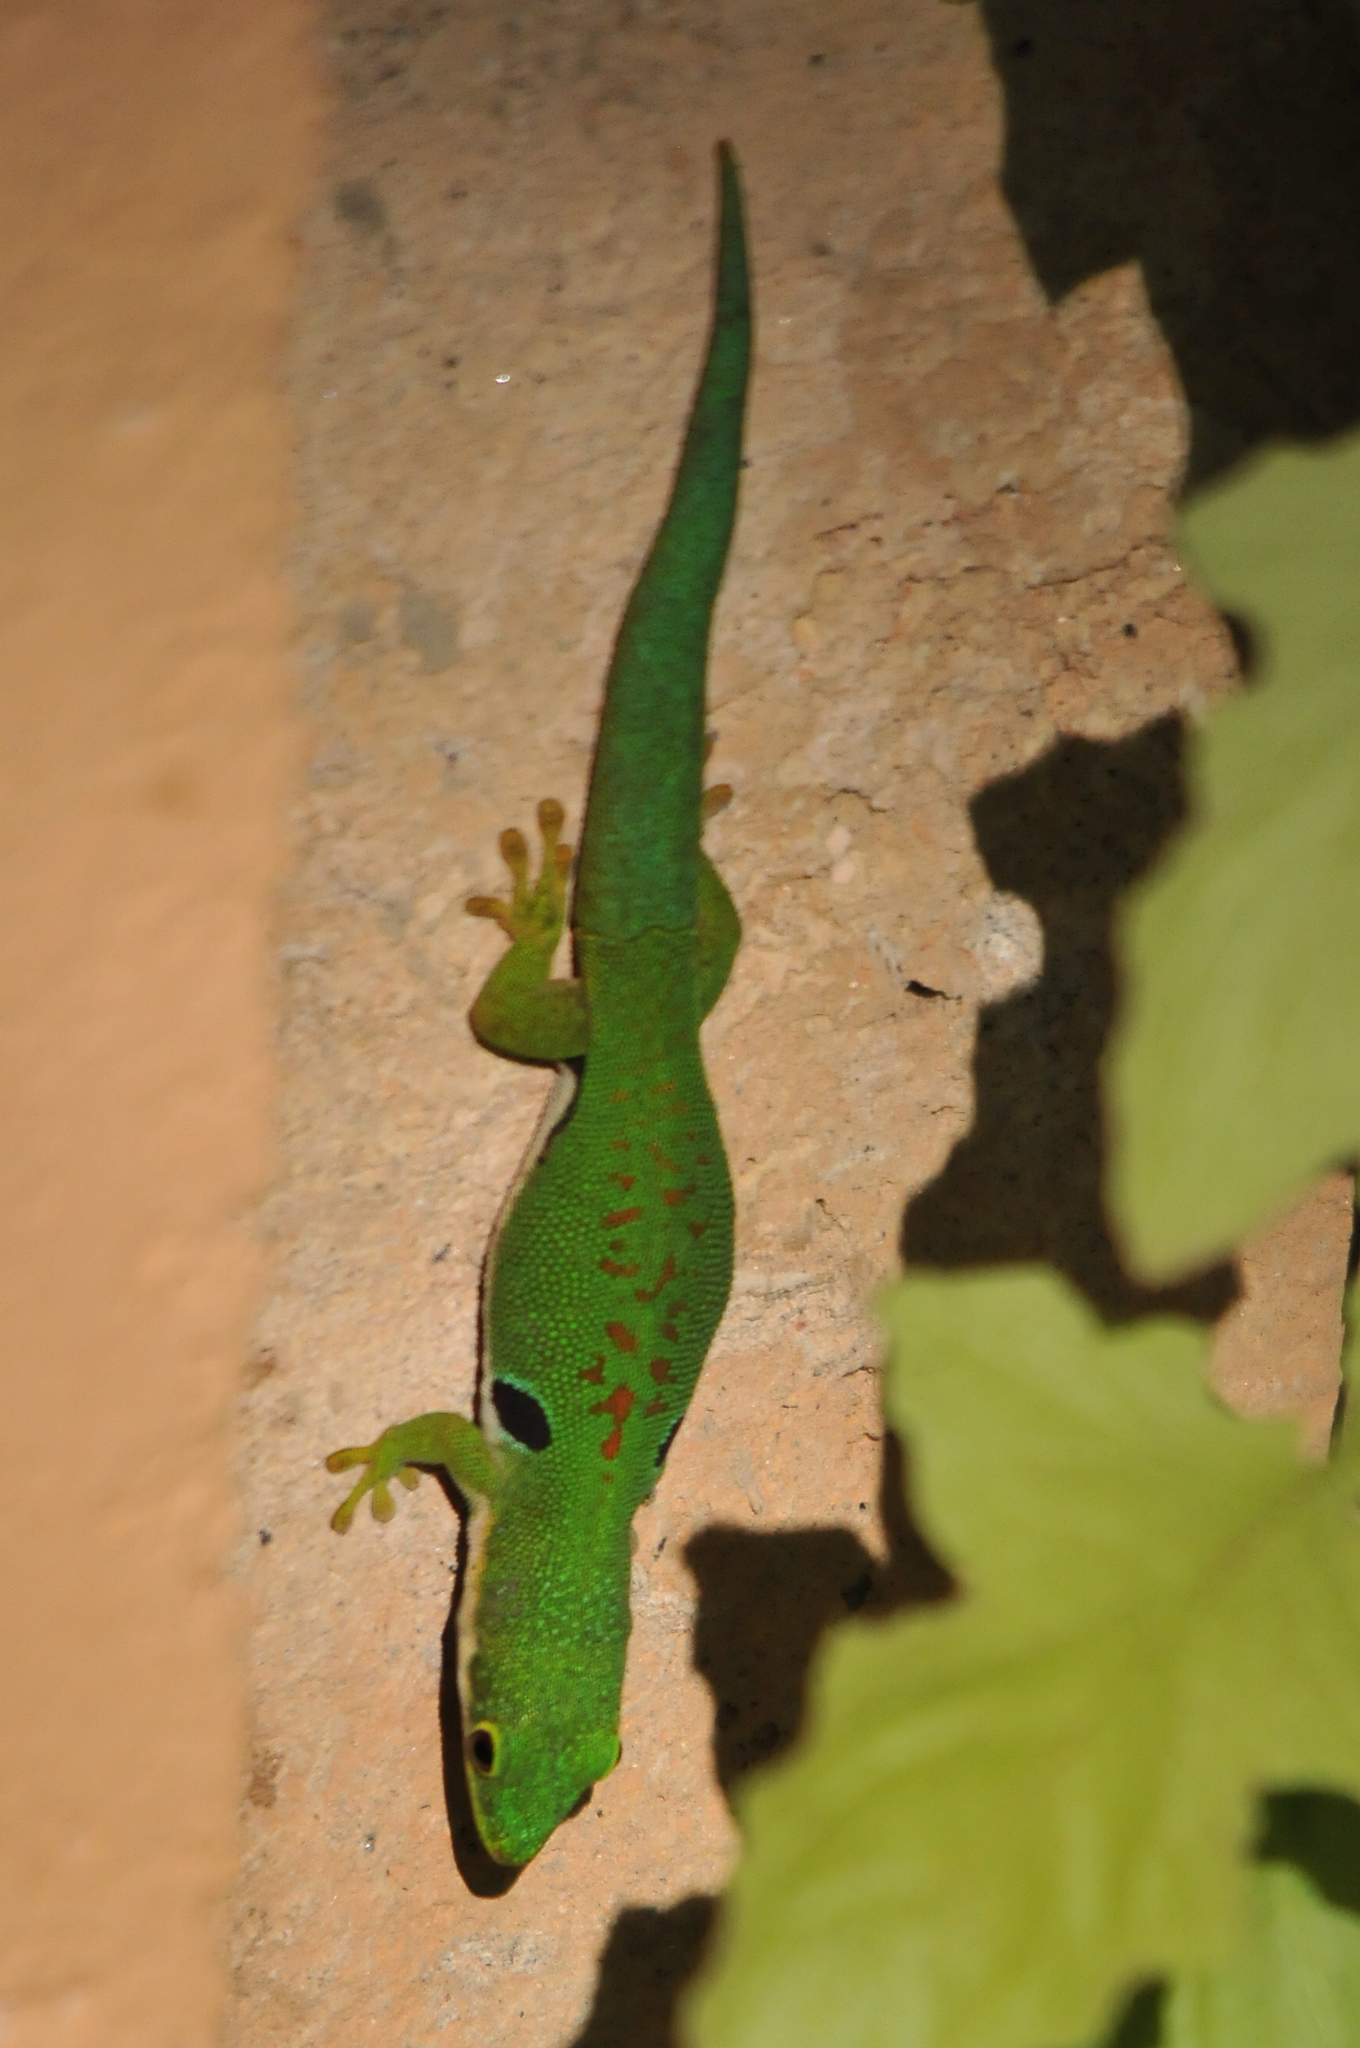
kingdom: Animalia
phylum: Chordata
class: Squamata
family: Gekkonidae
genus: Phelsuma
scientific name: Phelsuma quadriocellata
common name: Peacock day gecko
